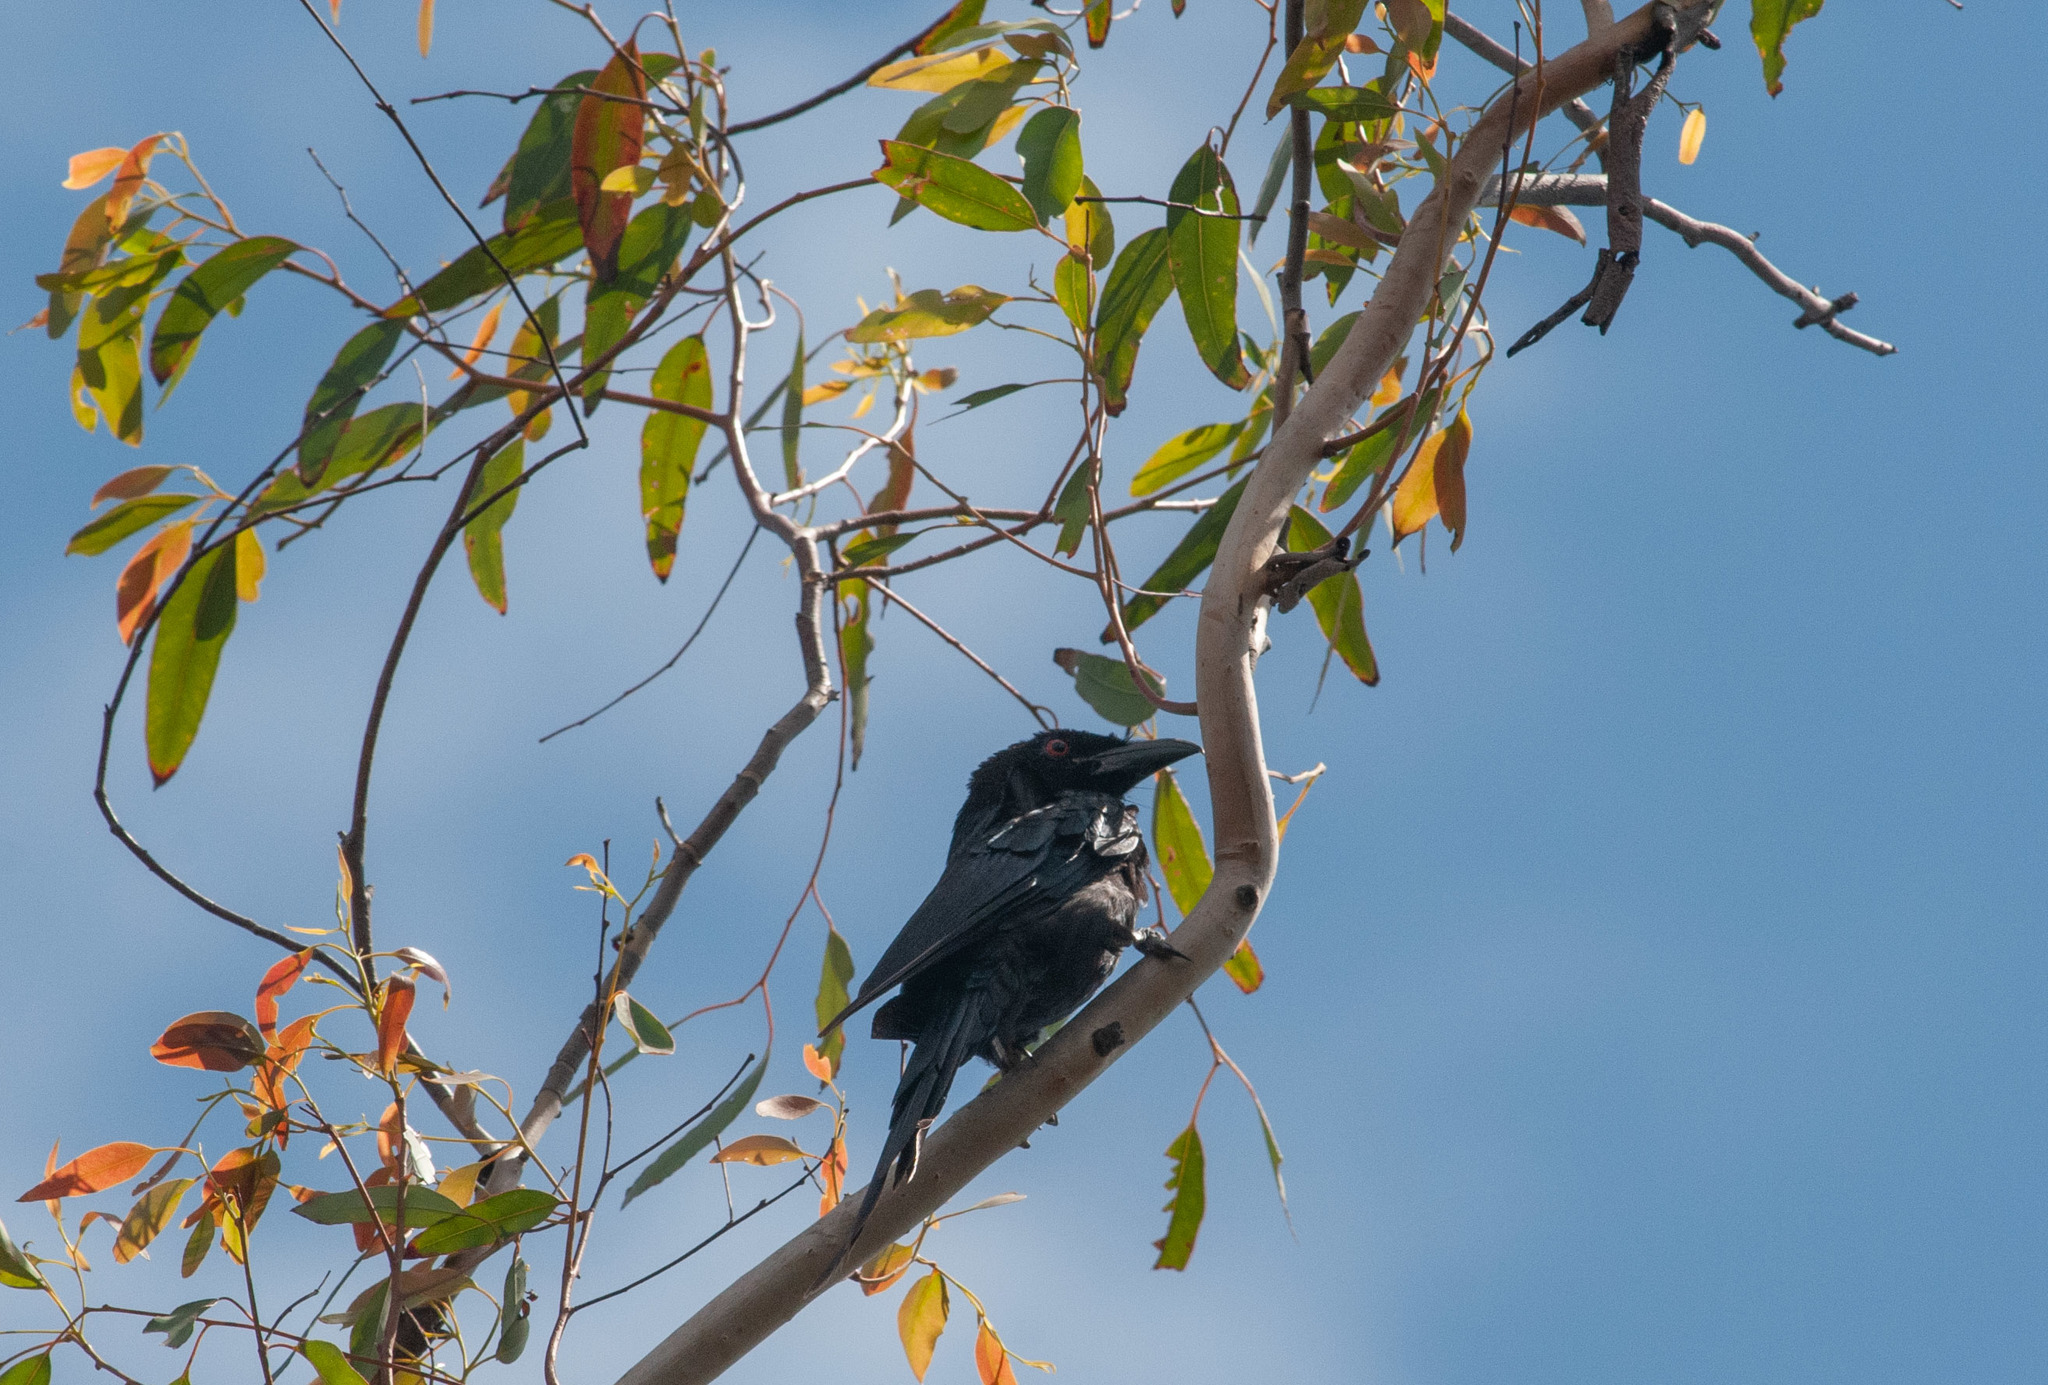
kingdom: Animalia
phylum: Chordata
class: Aves
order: Passeriformes
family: Dicruridae
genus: Dicrurus
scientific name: Dicrurus bracteatus
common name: Spangled drongo
